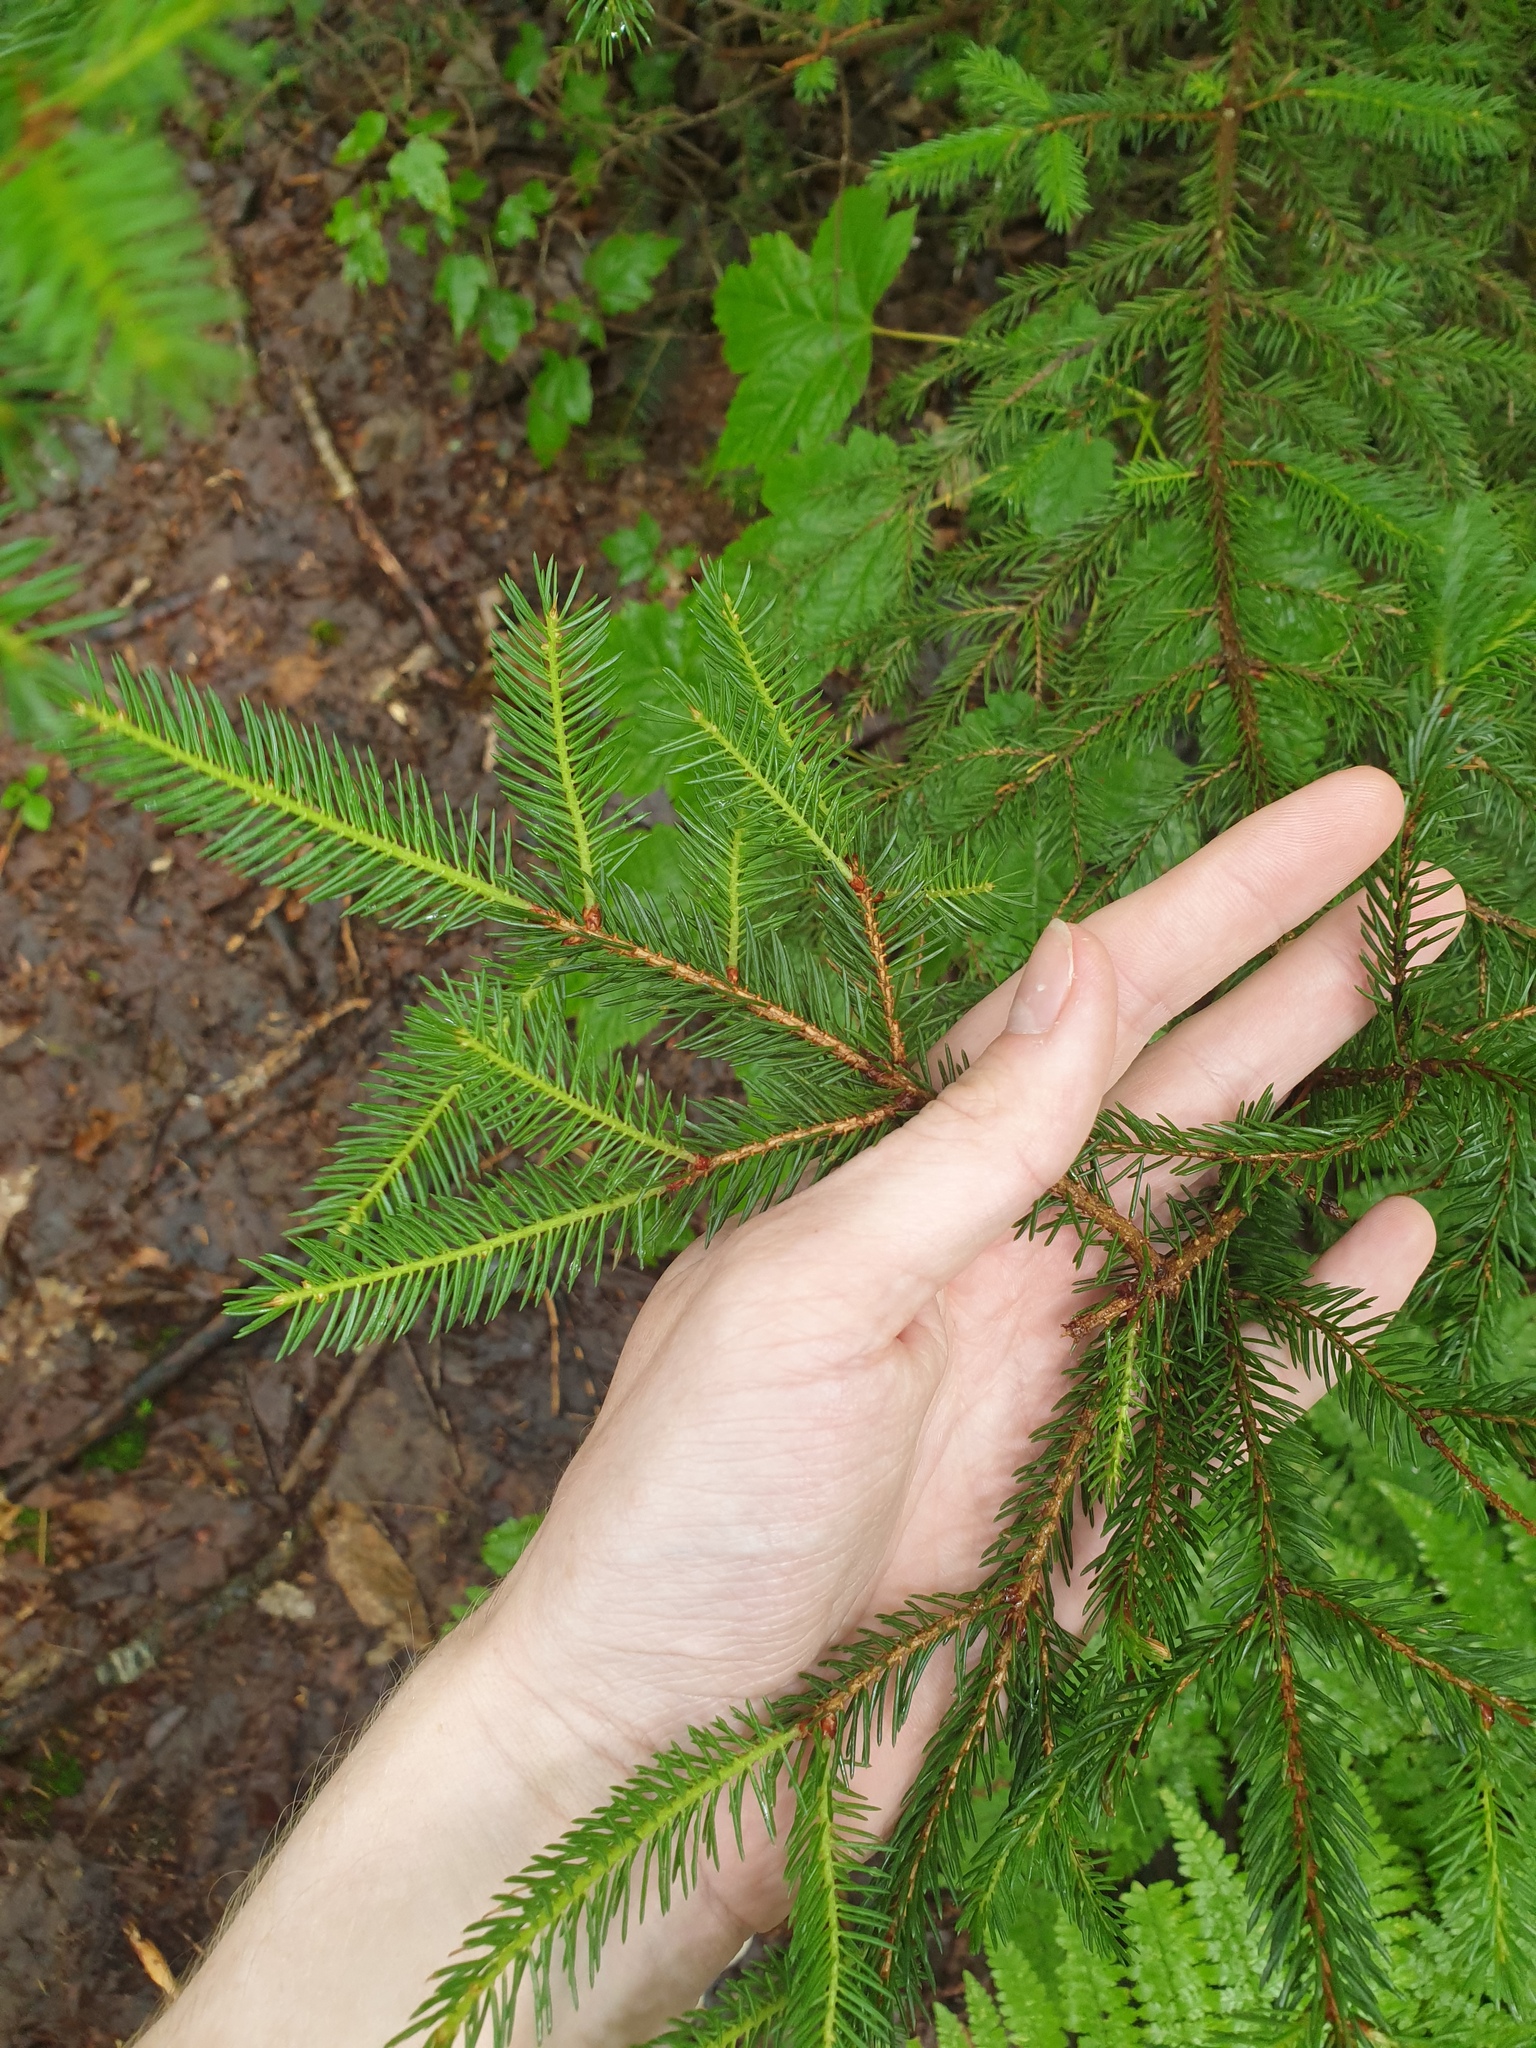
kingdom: Plantae
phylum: Tracheophyta
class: Pinopsida
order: Pinales
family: Pinaceae
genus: Picea
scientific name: Picea rubens
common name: Red spruce
